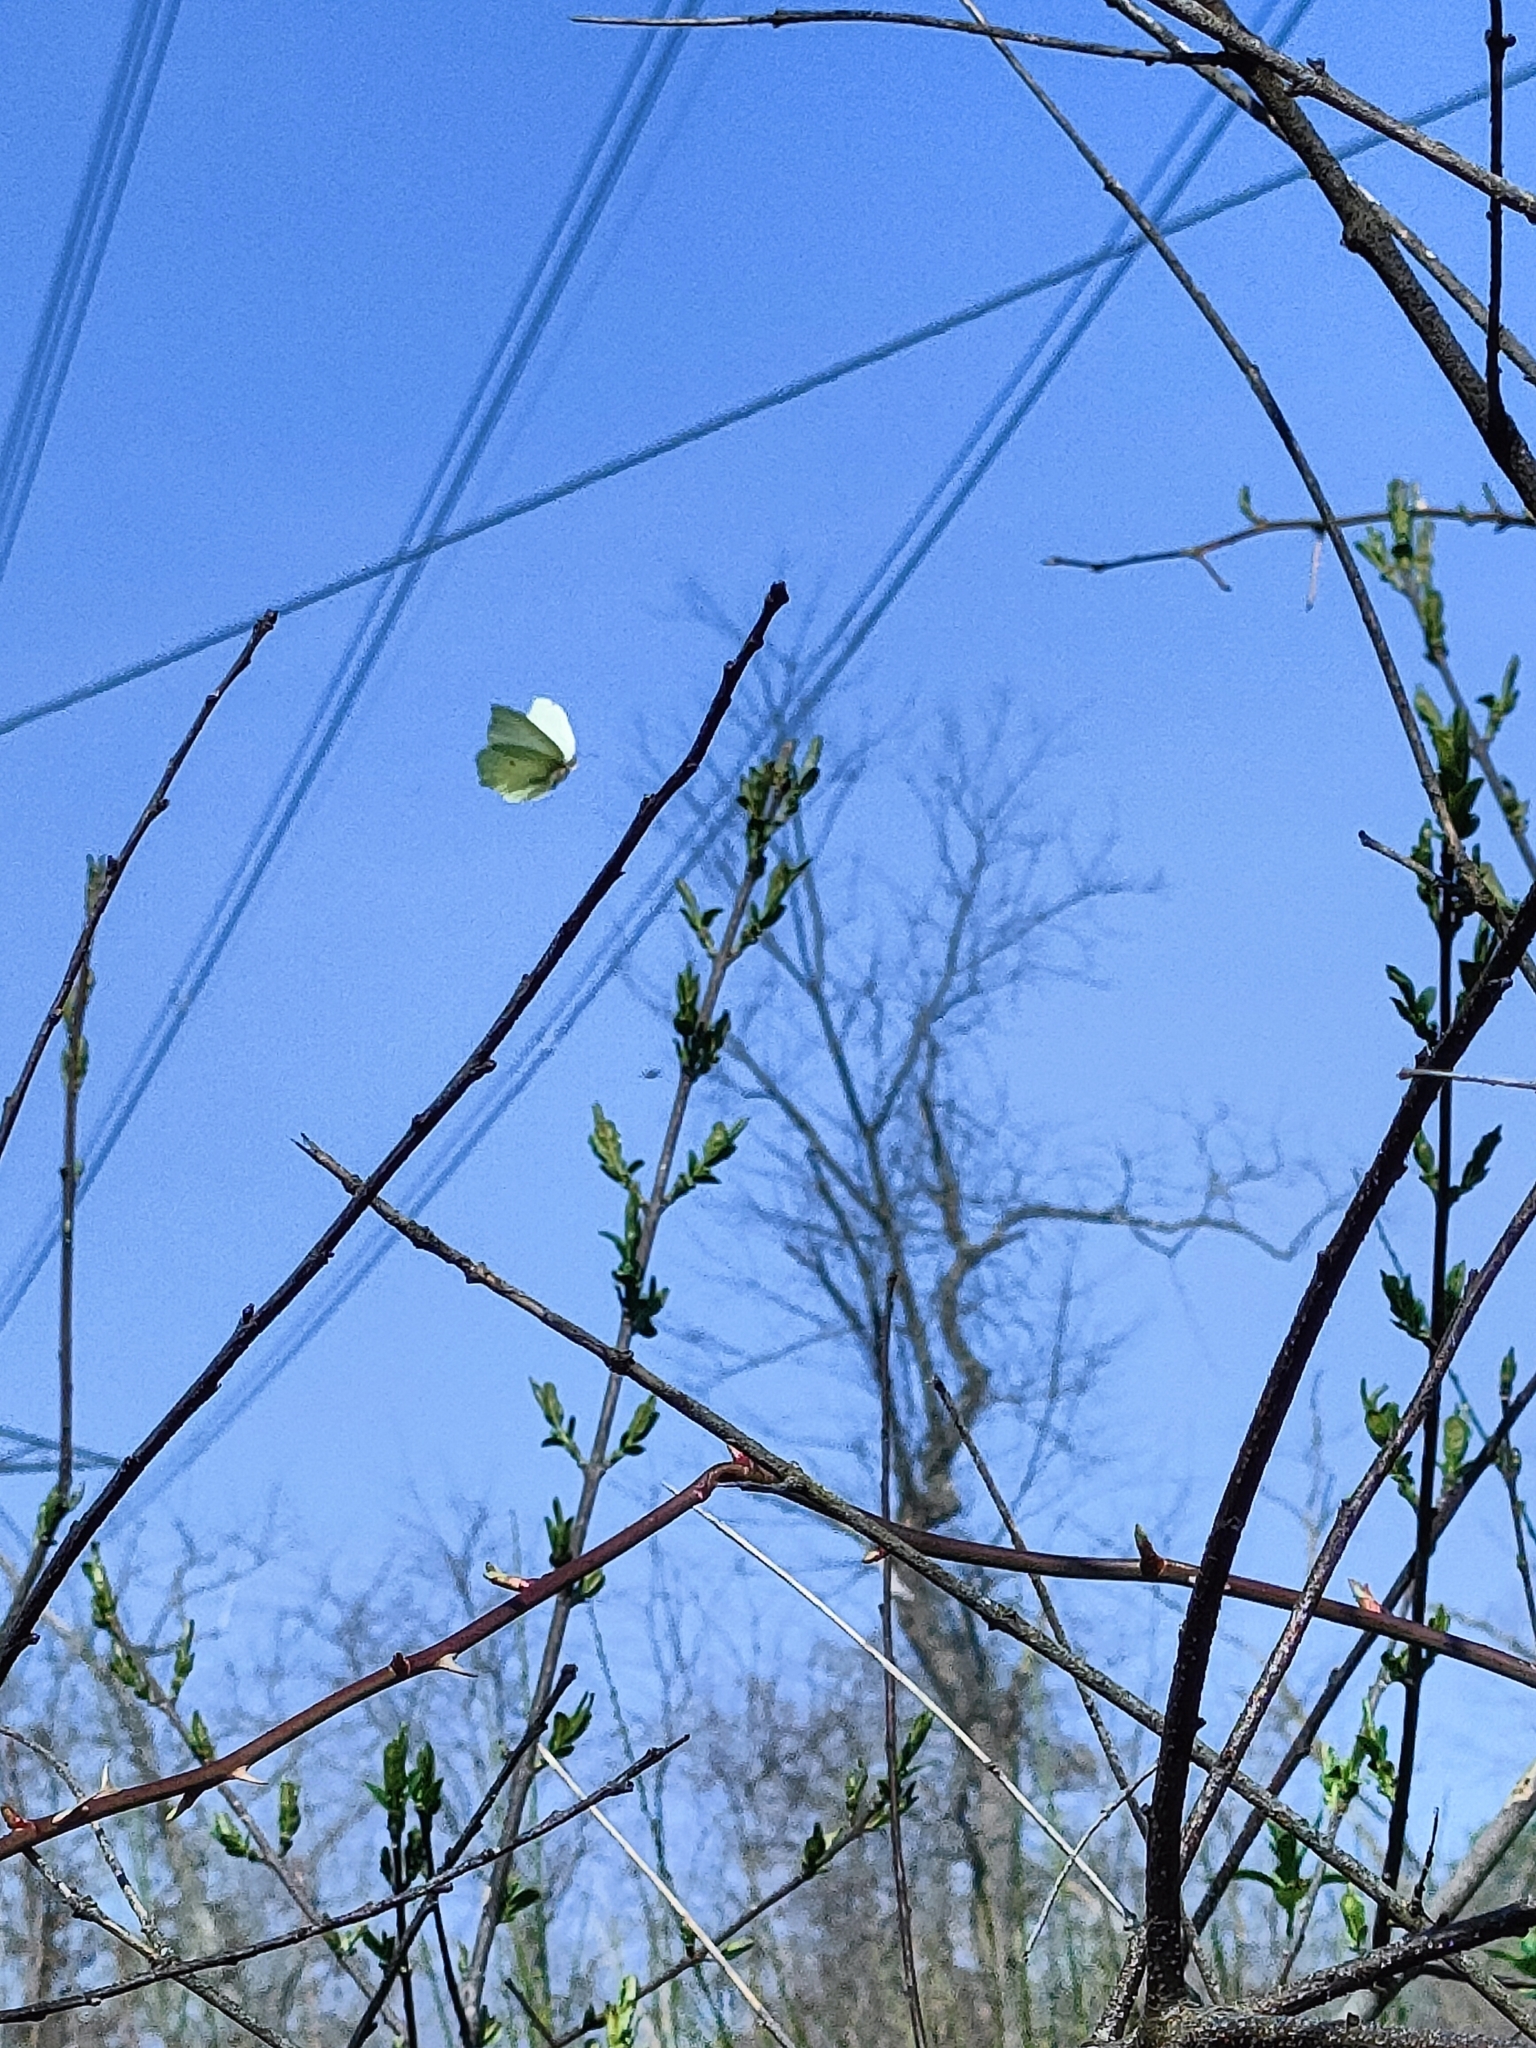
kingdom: Animalia
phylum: Arthropoda
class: Insecta
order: Lepidoptera
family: Pieridae
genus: Gonepteryx
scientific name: Gonepteryx rhamni
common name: Brimstone
